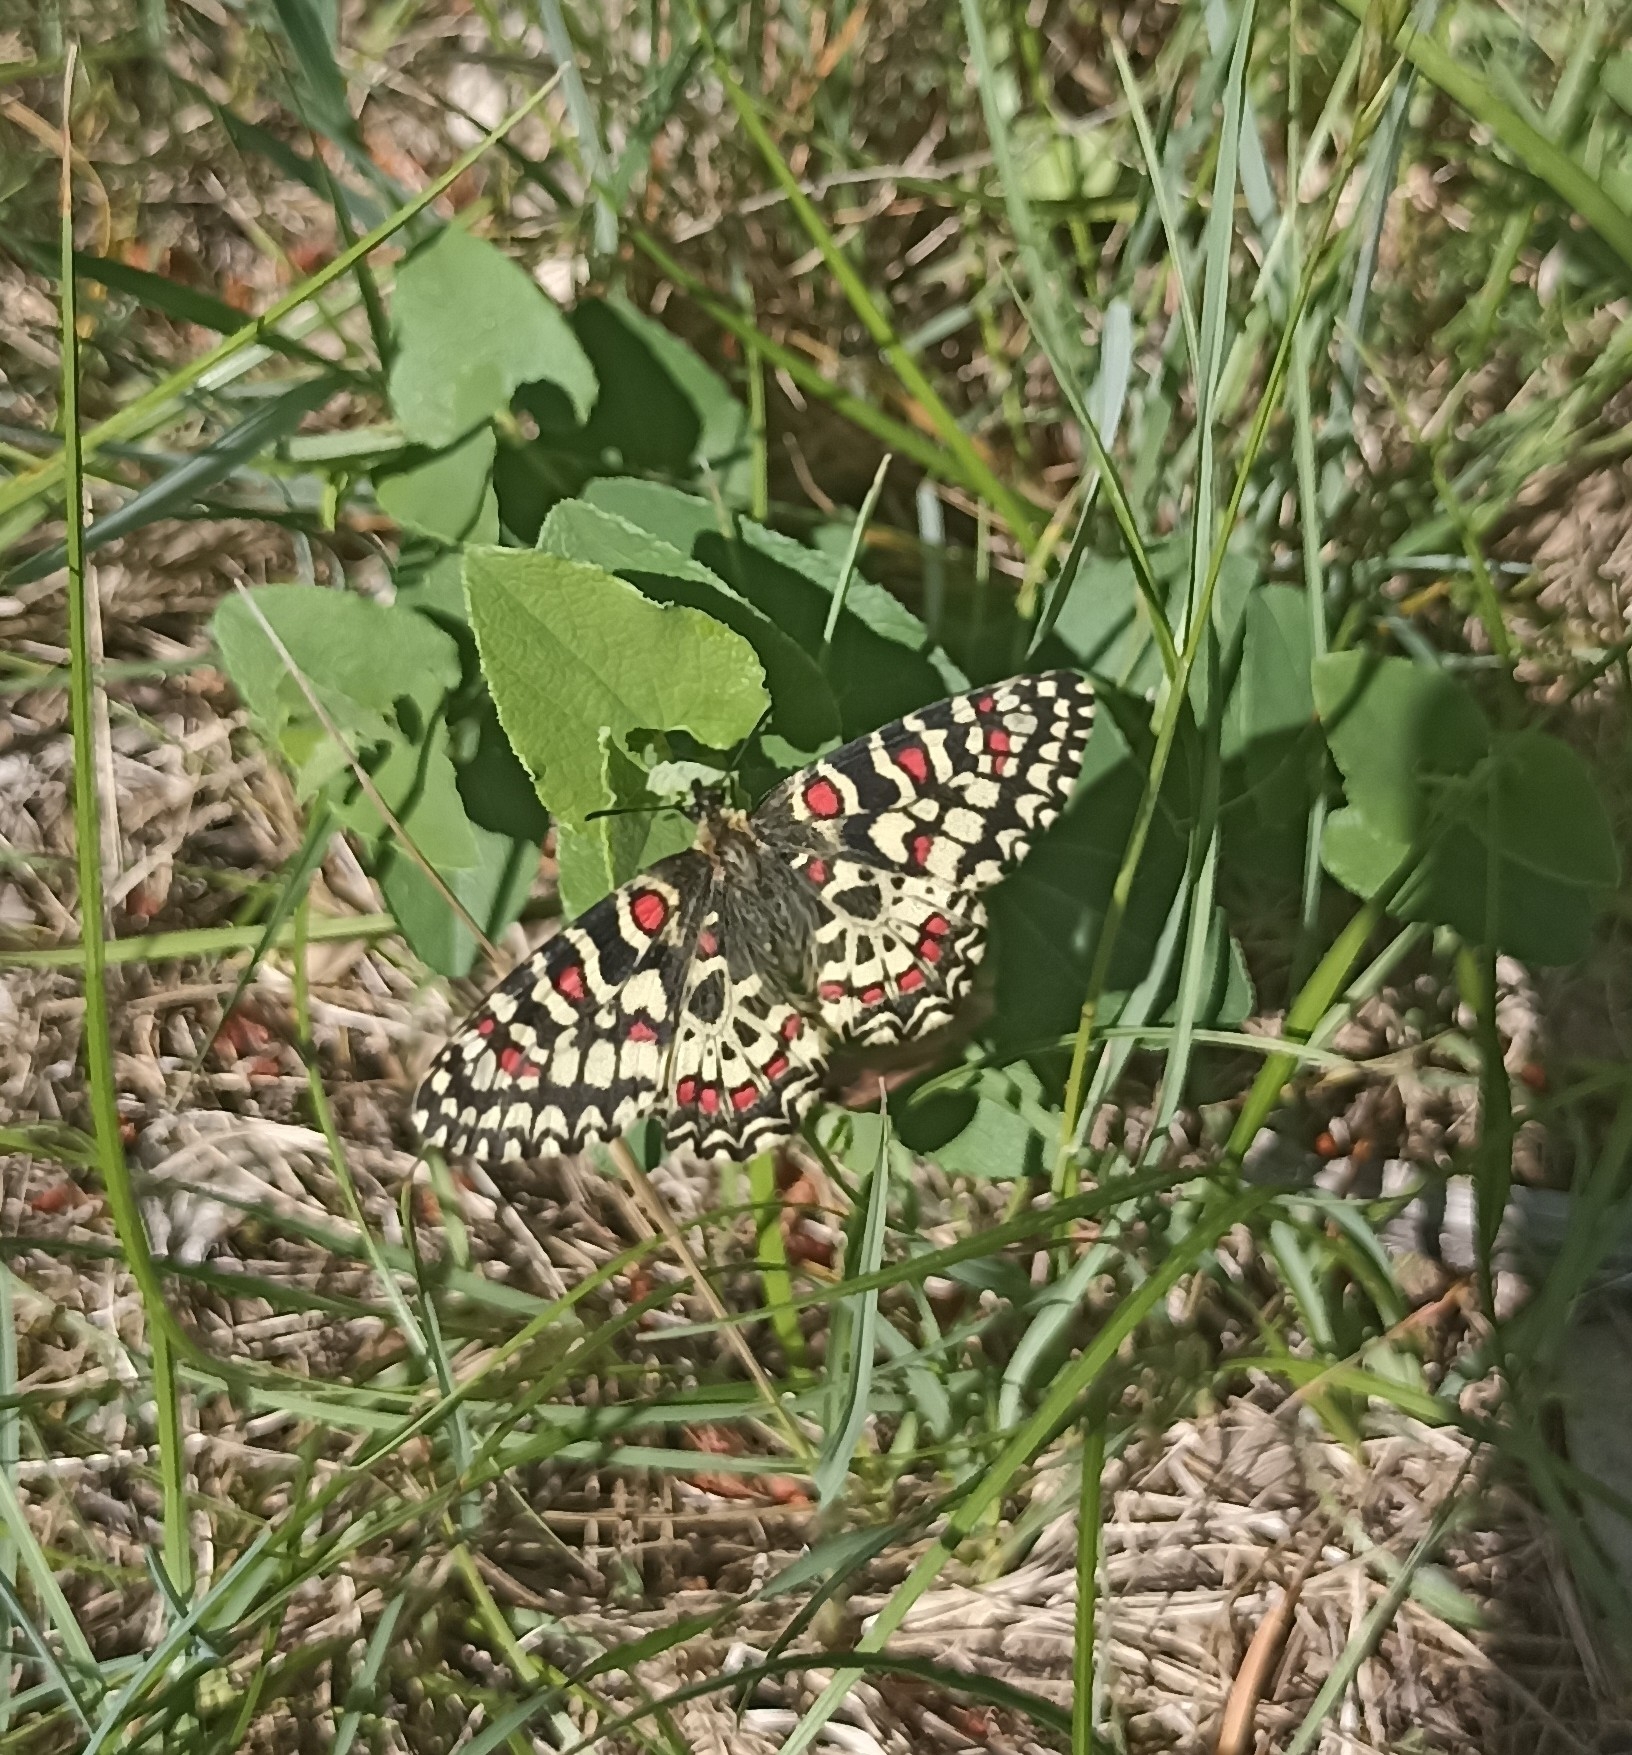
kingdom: Animalia
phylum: Arthropoda
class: Insecta
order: Lepidoptera
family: Papilionidae
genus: Zerynthia
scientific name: Zerynthia rumina
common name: Spanish festoon
